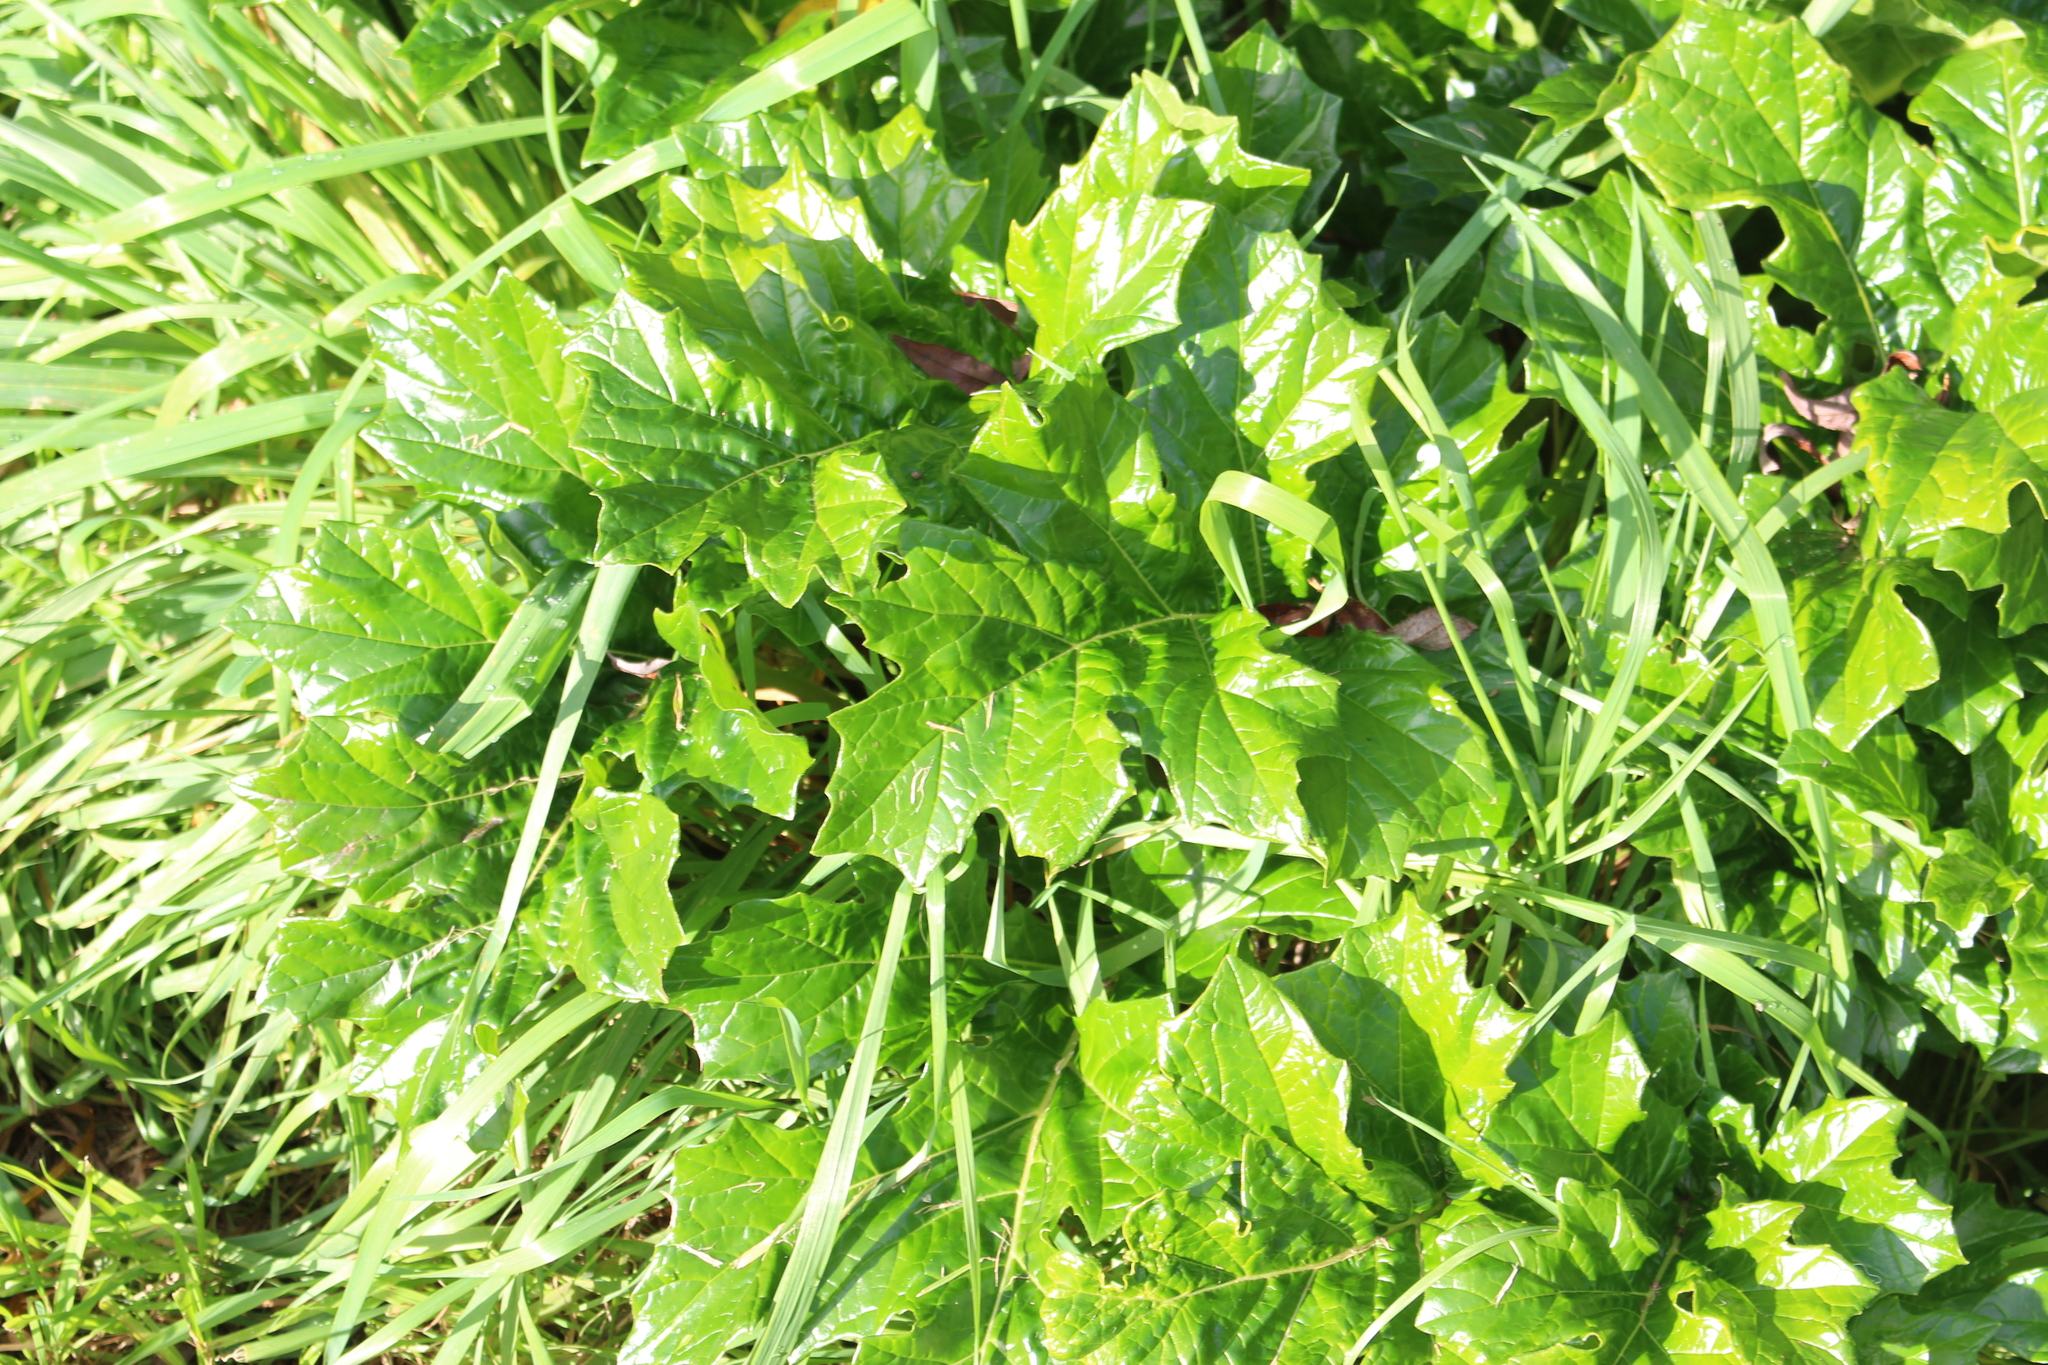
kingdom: Plantae
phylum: Tracheophyta
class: Magnoliopsida
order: Lamiales
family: Acanthaceae
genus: Acanthus
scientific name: Acanthus mollis
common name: Bear's-breech
